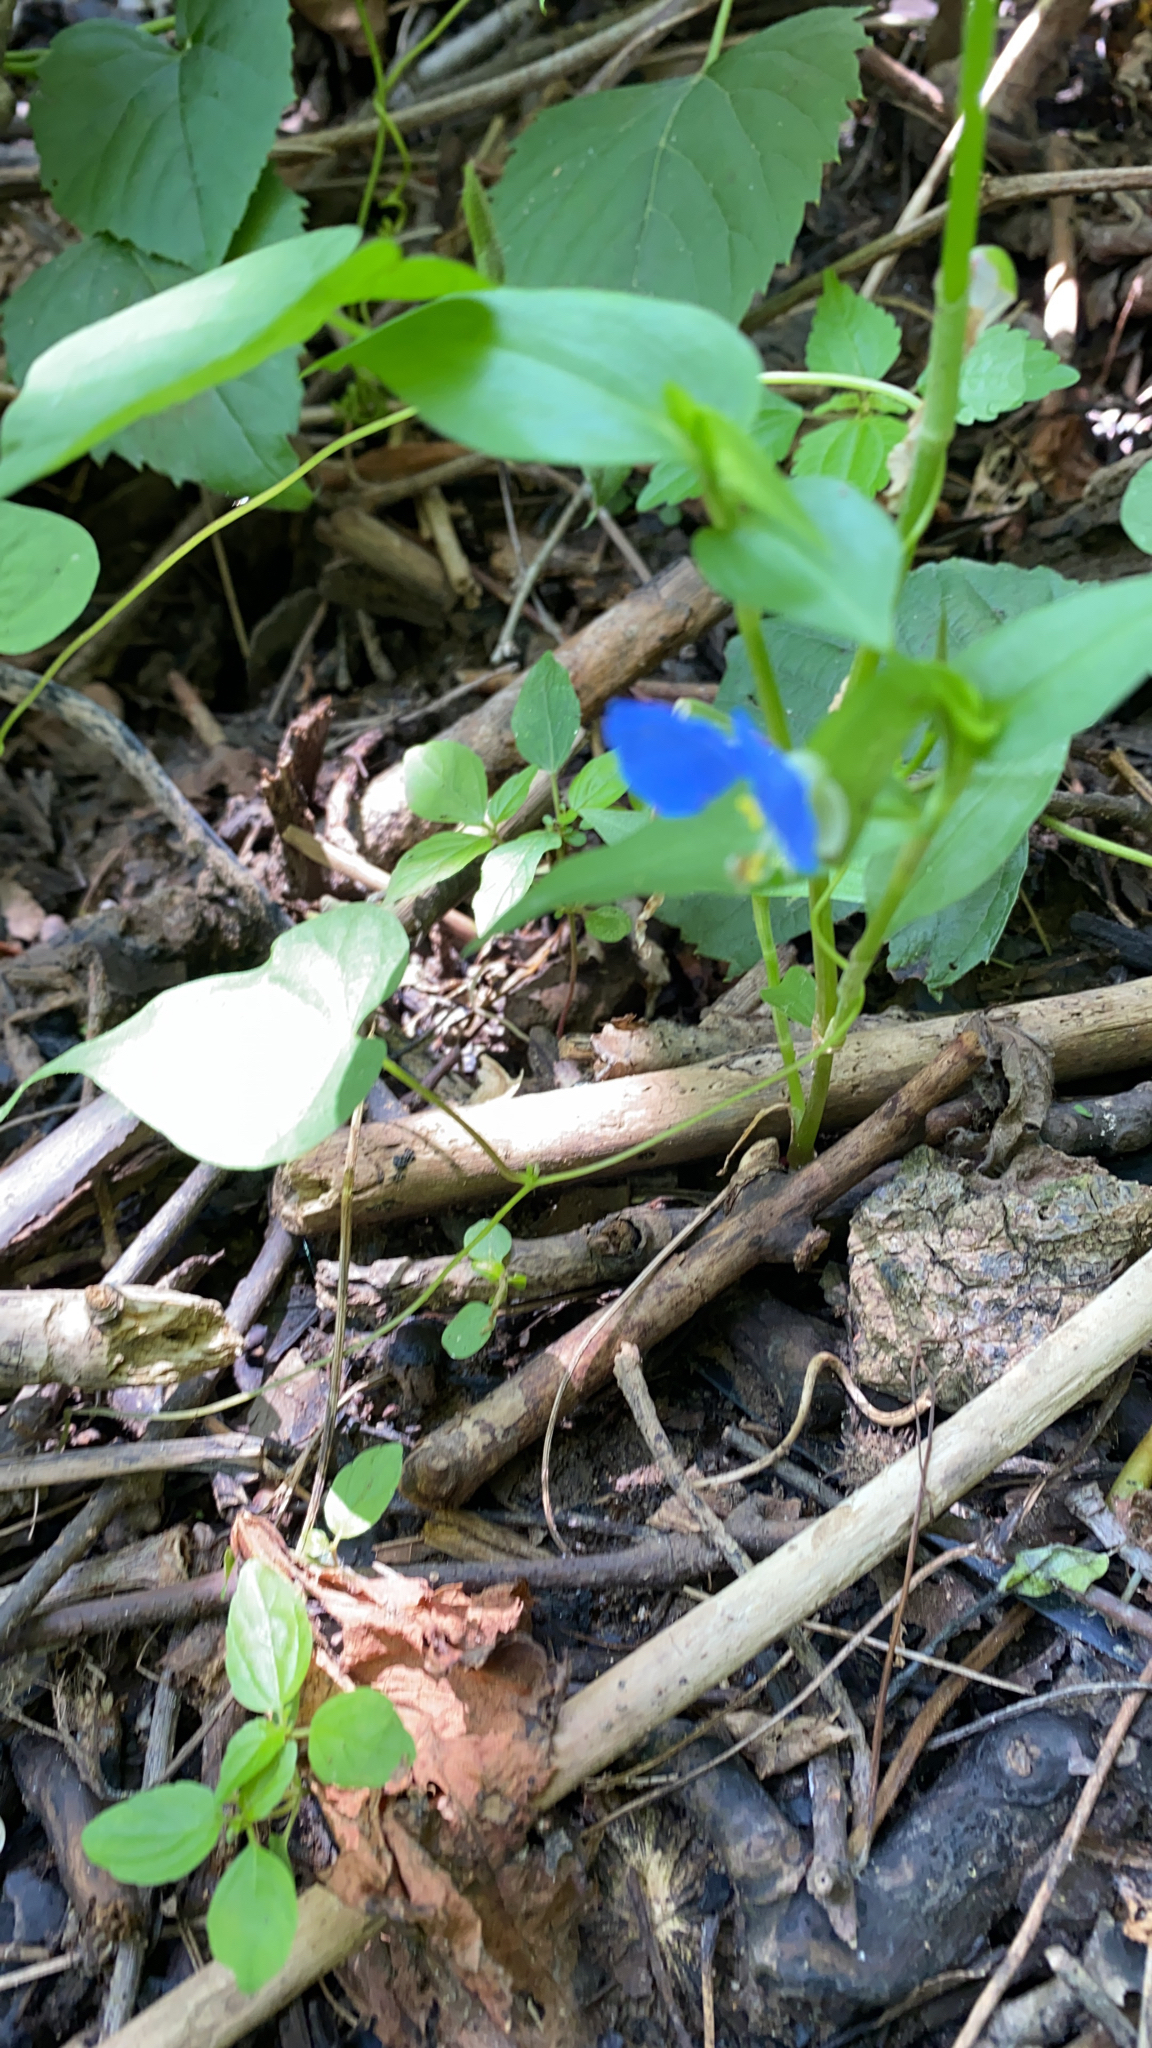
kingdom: Plantae
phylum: Tracheophyta
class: Liliopsida
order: Commelinales
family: Commelinaceae
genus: Commelina
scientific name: Commelina communis
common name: Asiatic dayflower
